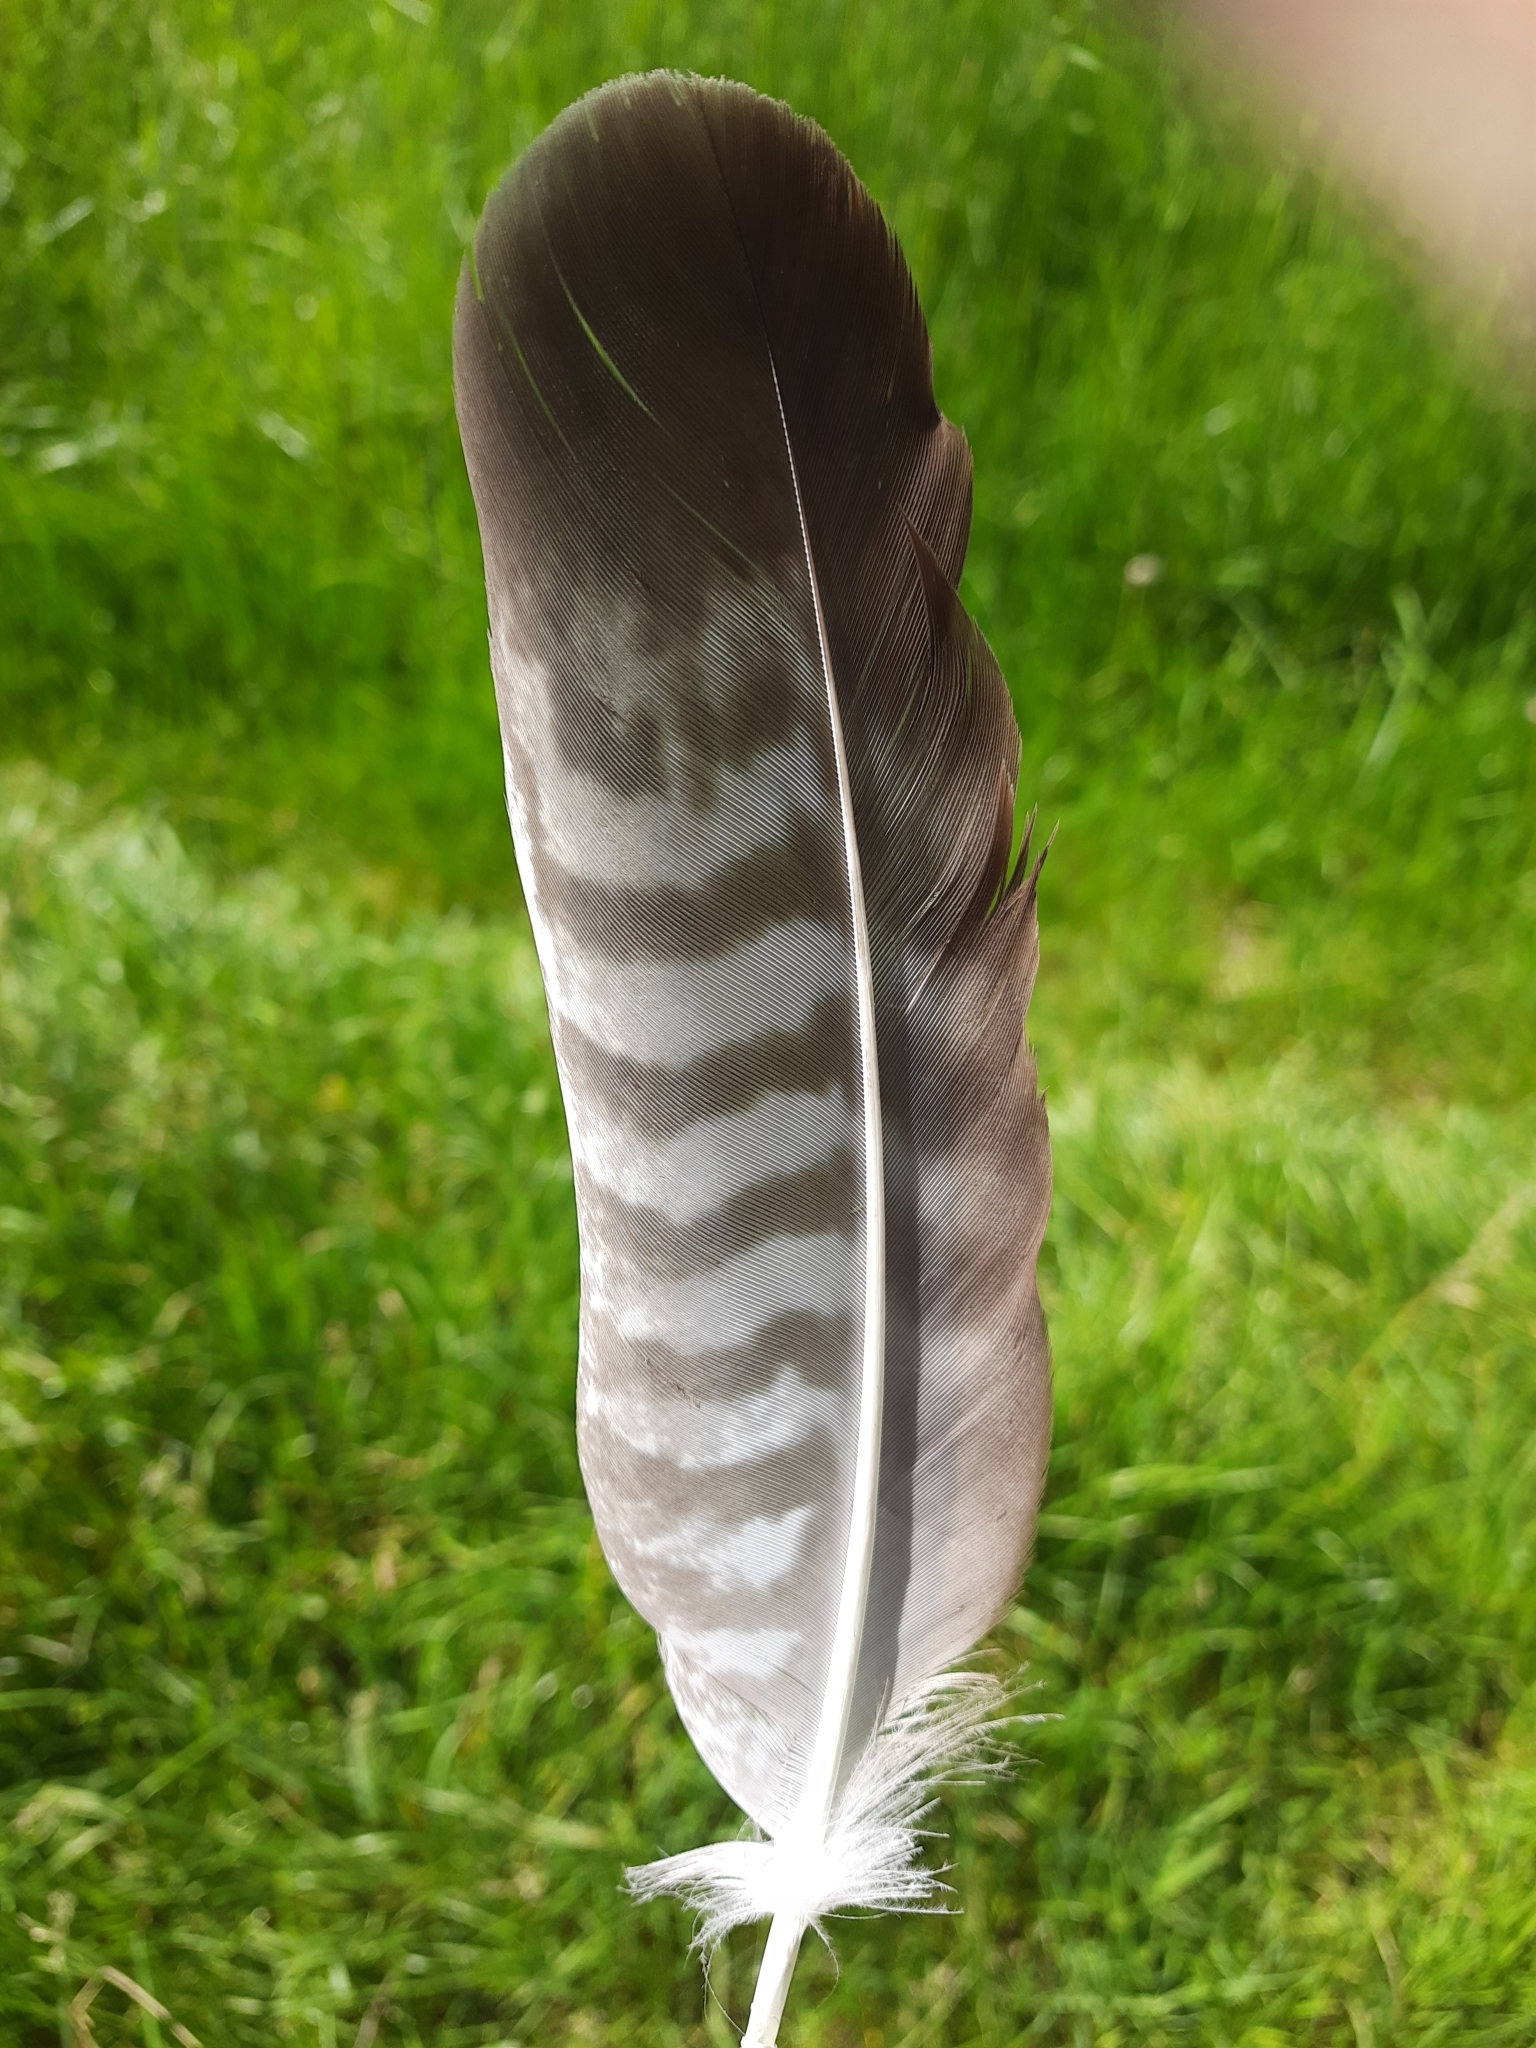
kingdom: Animalia
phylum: Chordata
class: Aves
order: Accipitriformes
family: Accipitridae
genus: Buteo
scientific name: Buteo buteo
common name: Common buzzard
